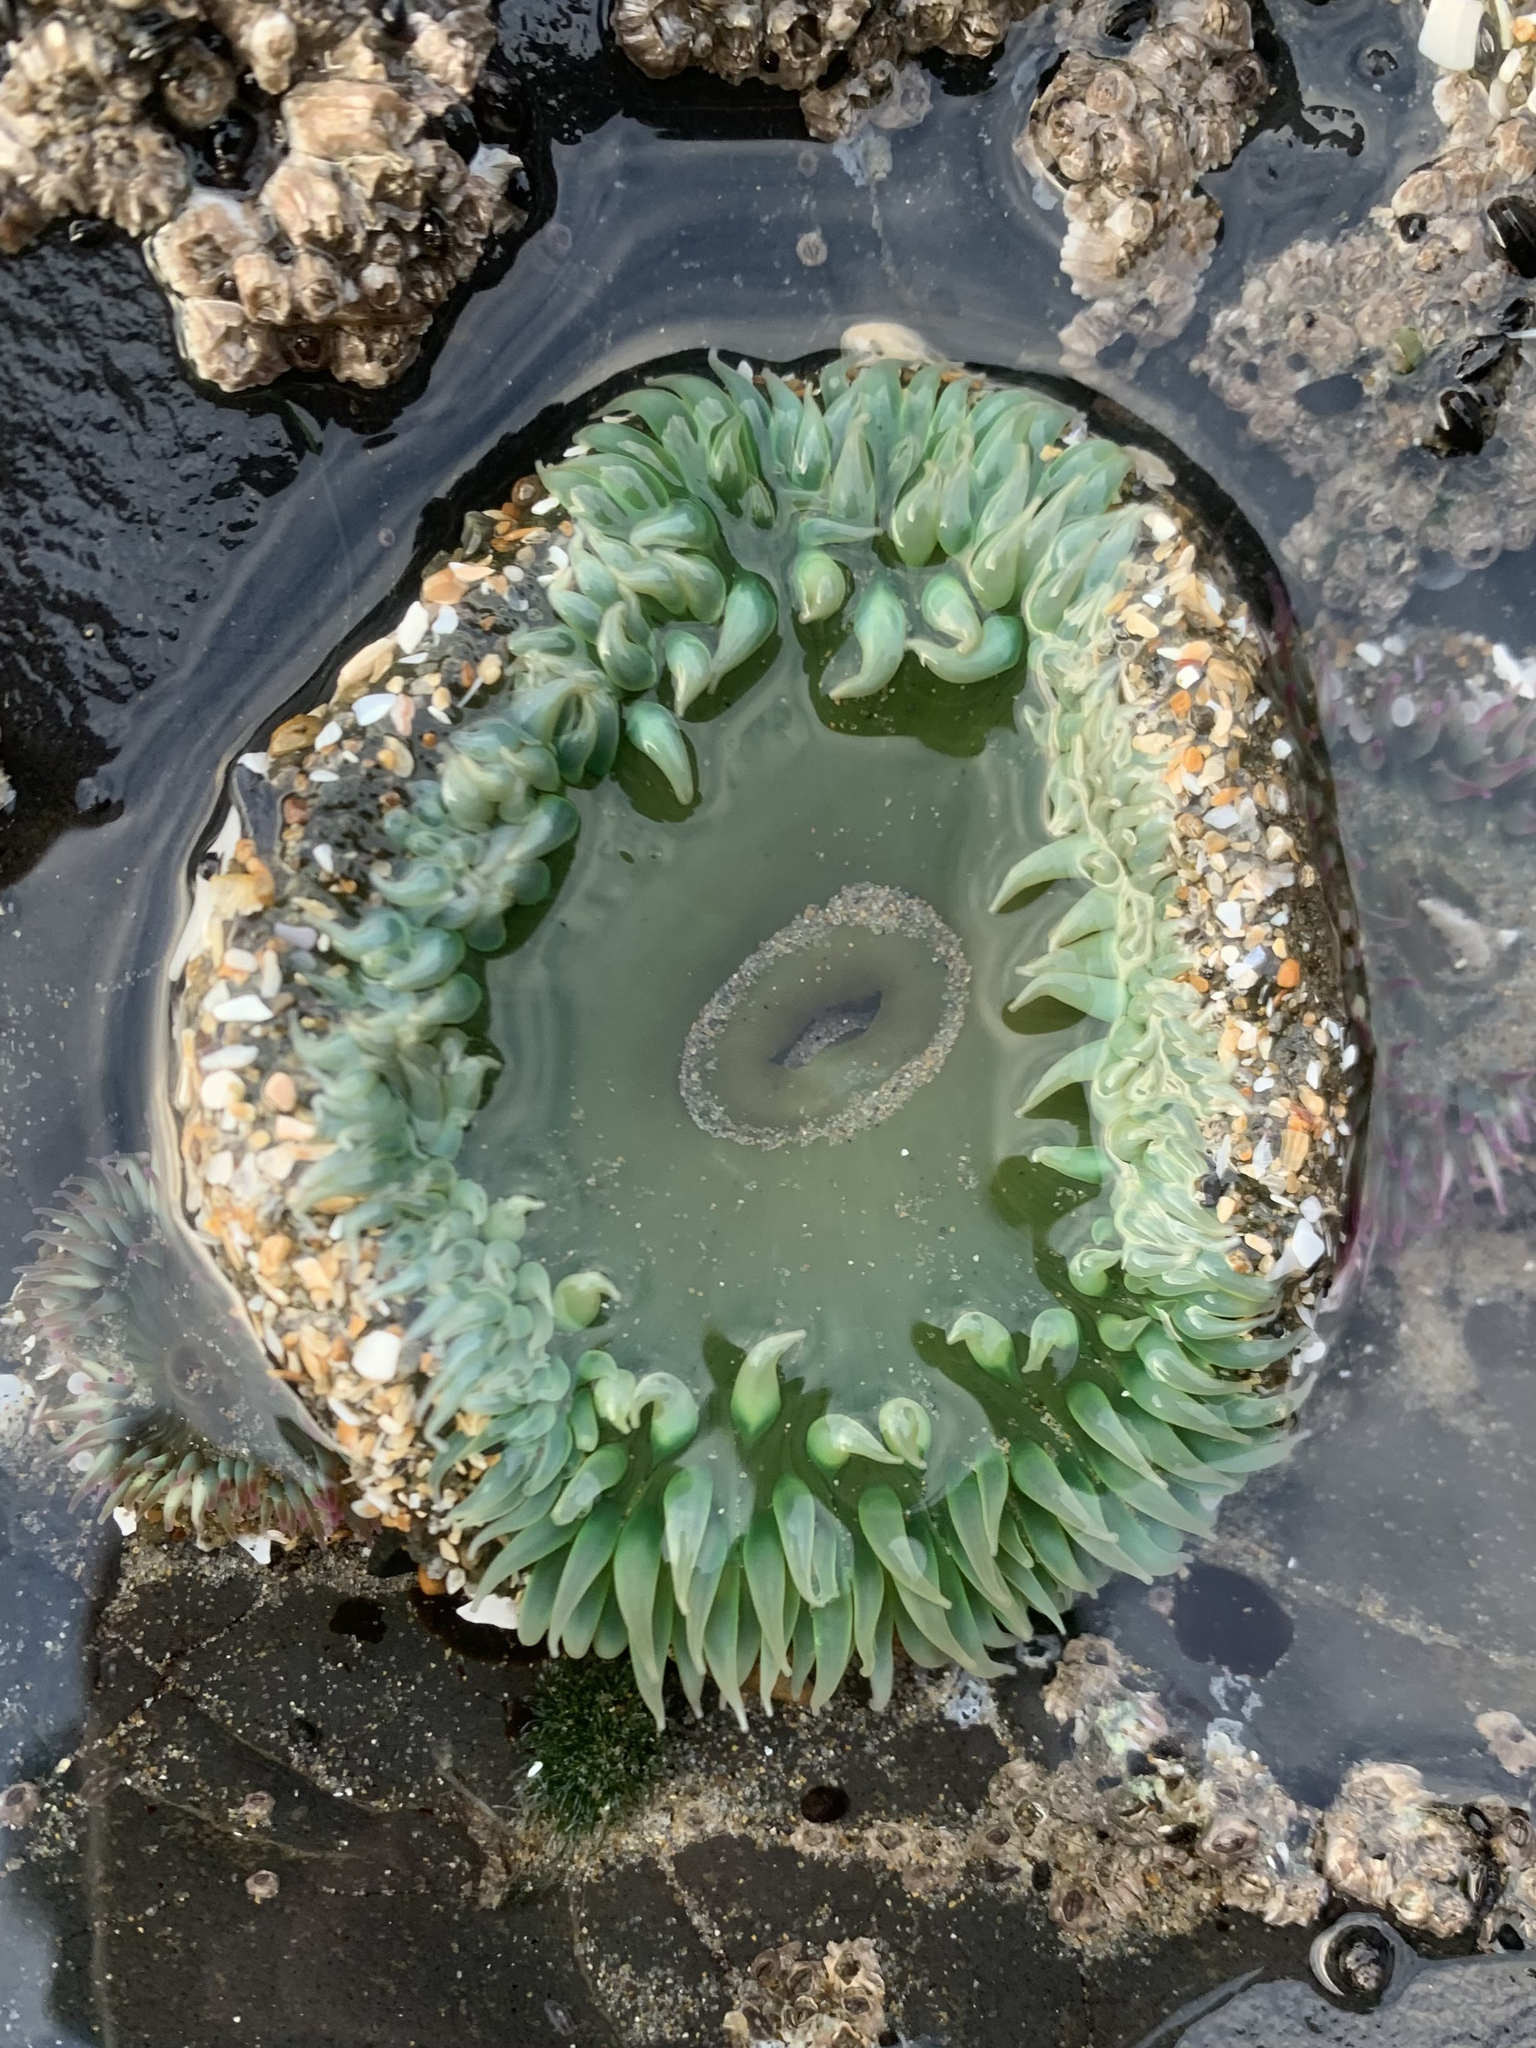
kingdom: Animalia
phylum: Cnidaria
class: Anthozoa
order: Actiniaria
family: Actiniidae
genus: Anthopleura
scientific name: Anthopleura xanthogrammica
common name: Giant green anemone
